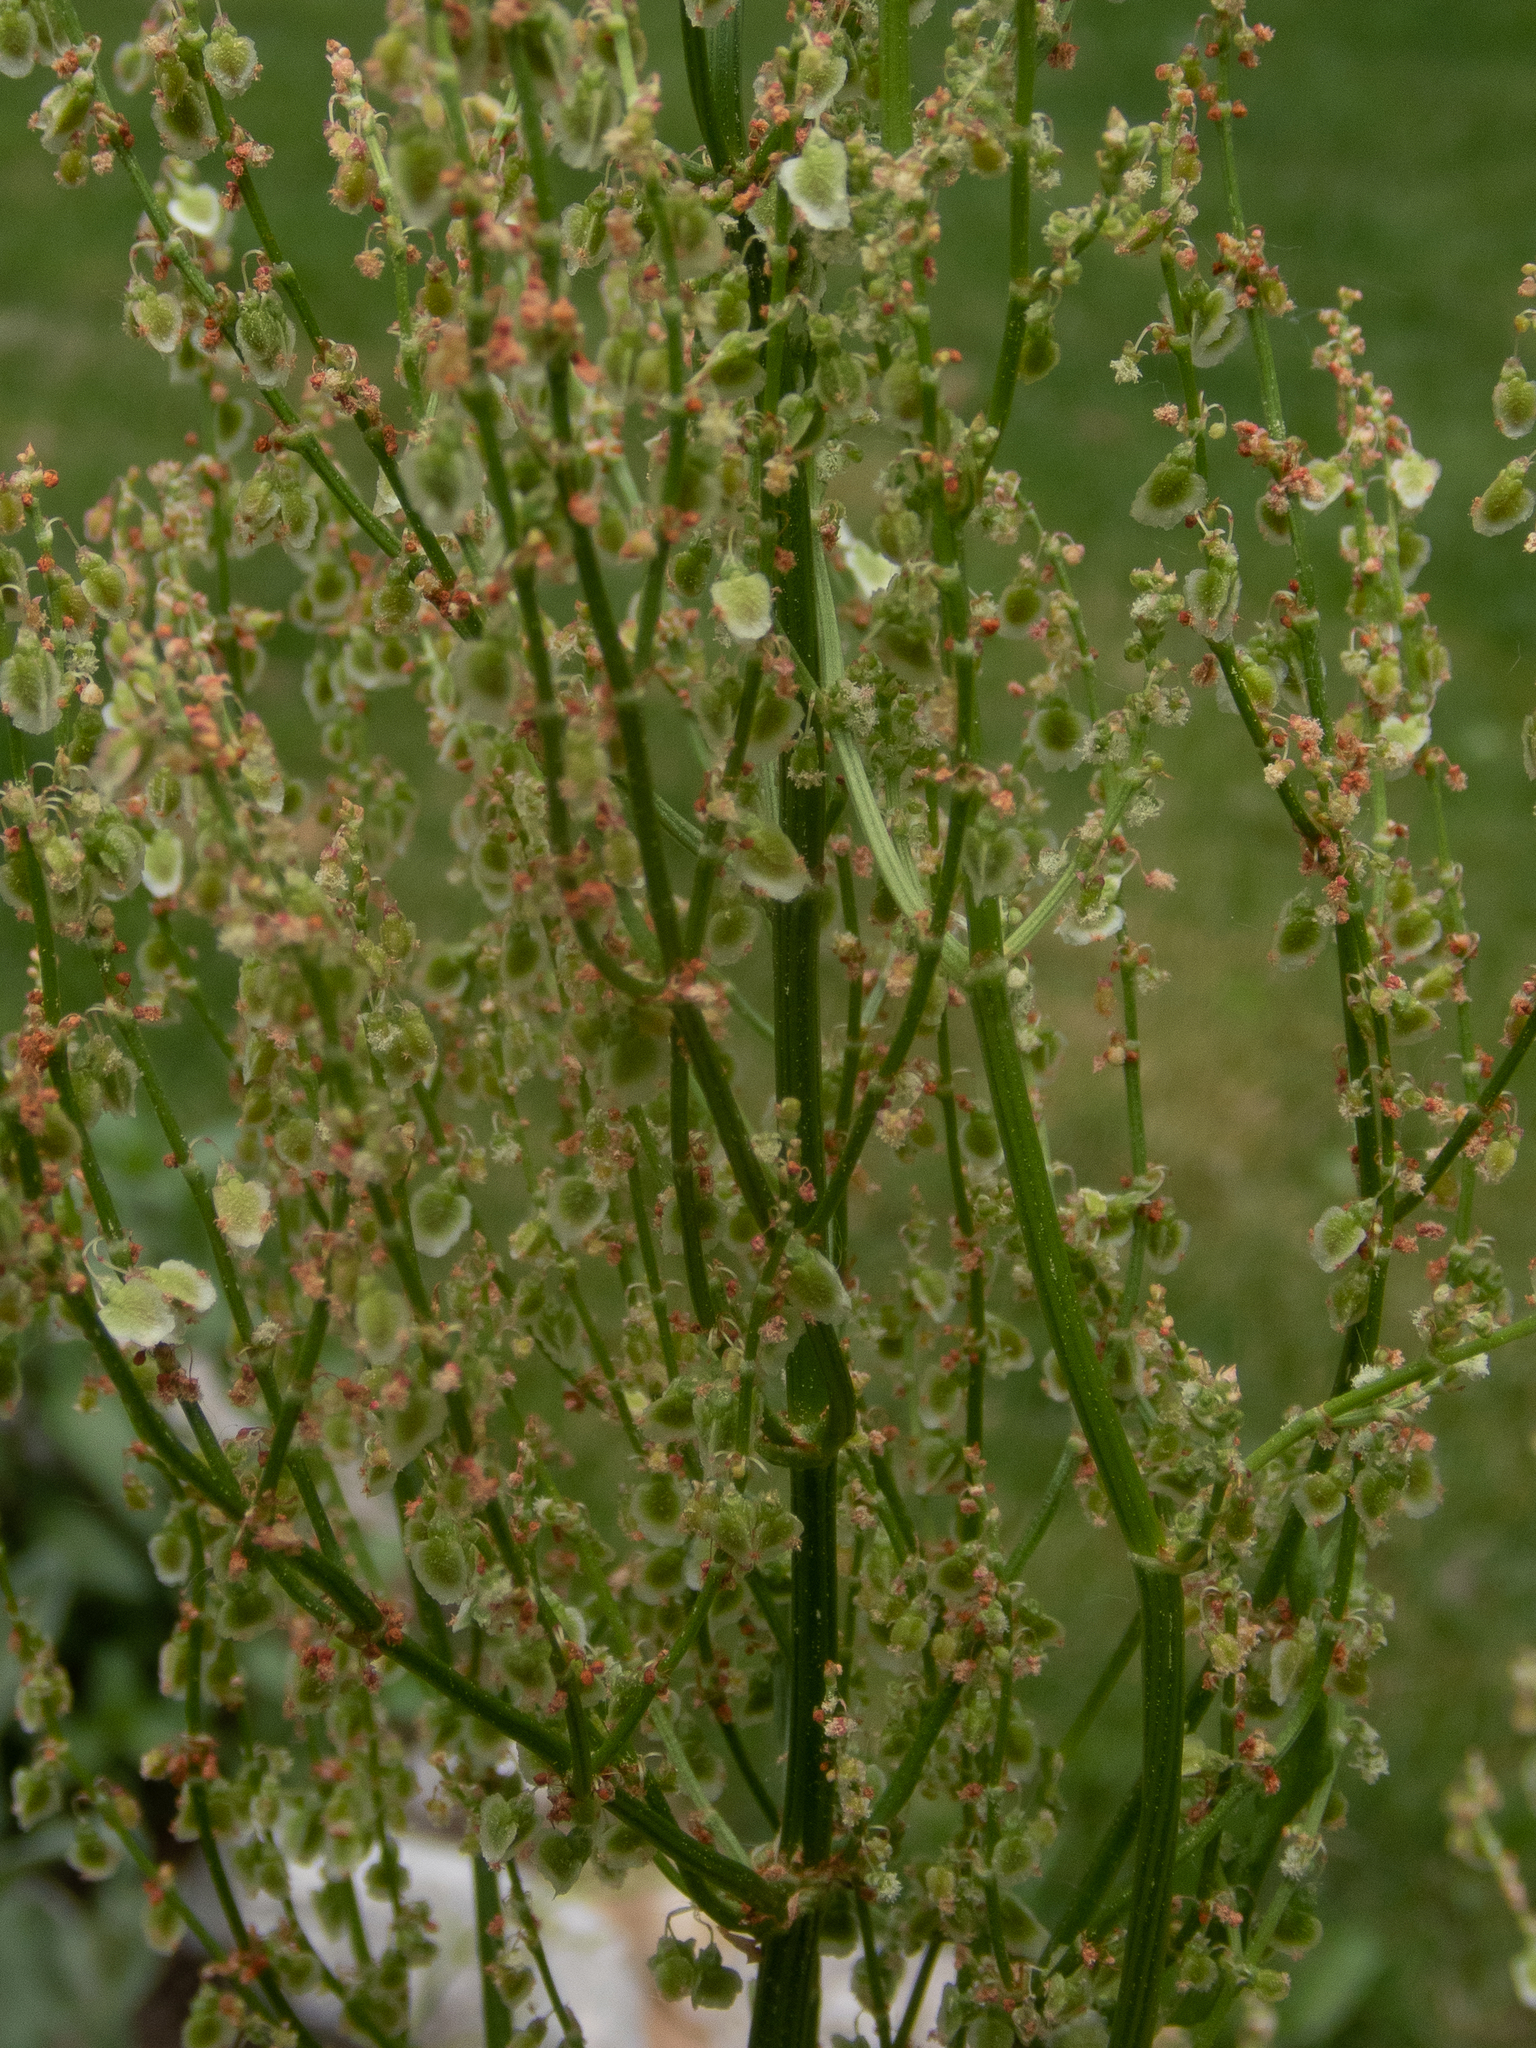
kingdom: Plantae
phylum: Tracheophyta
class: Magnoliopsida
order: Caryophyllales
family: Polygonaceae
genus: Rumex
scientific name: Rumex crispus
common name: Curled dock
